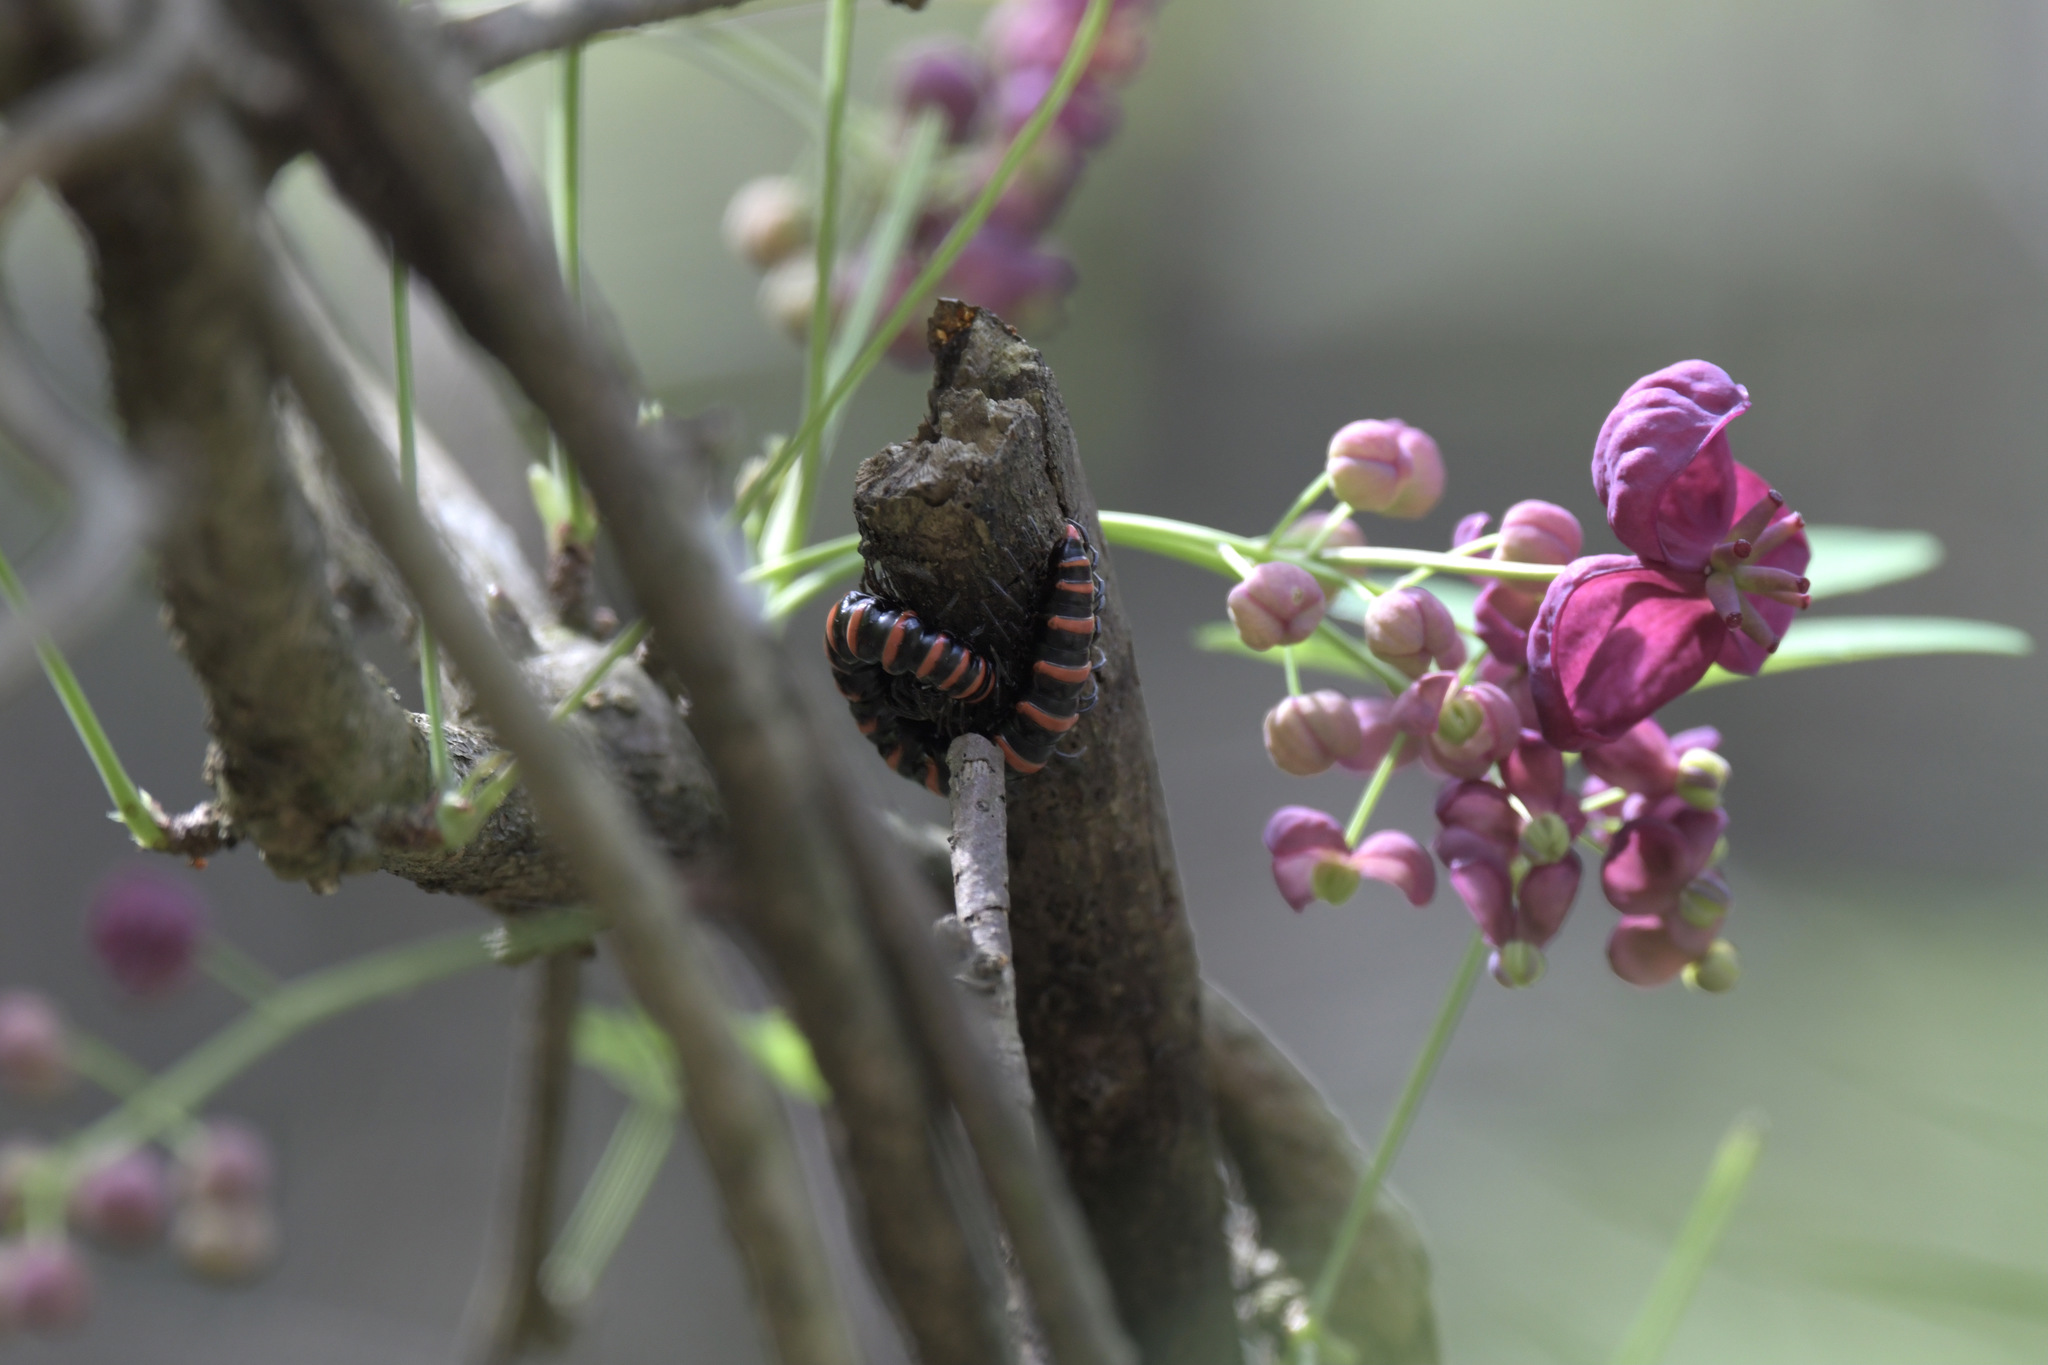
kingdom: Animalia
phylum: Arthropoda
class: Diplopoda
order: Polydesmida
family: Paradoxosomatidae
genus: Kronopolites
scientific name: Kronopolites swinhoei
